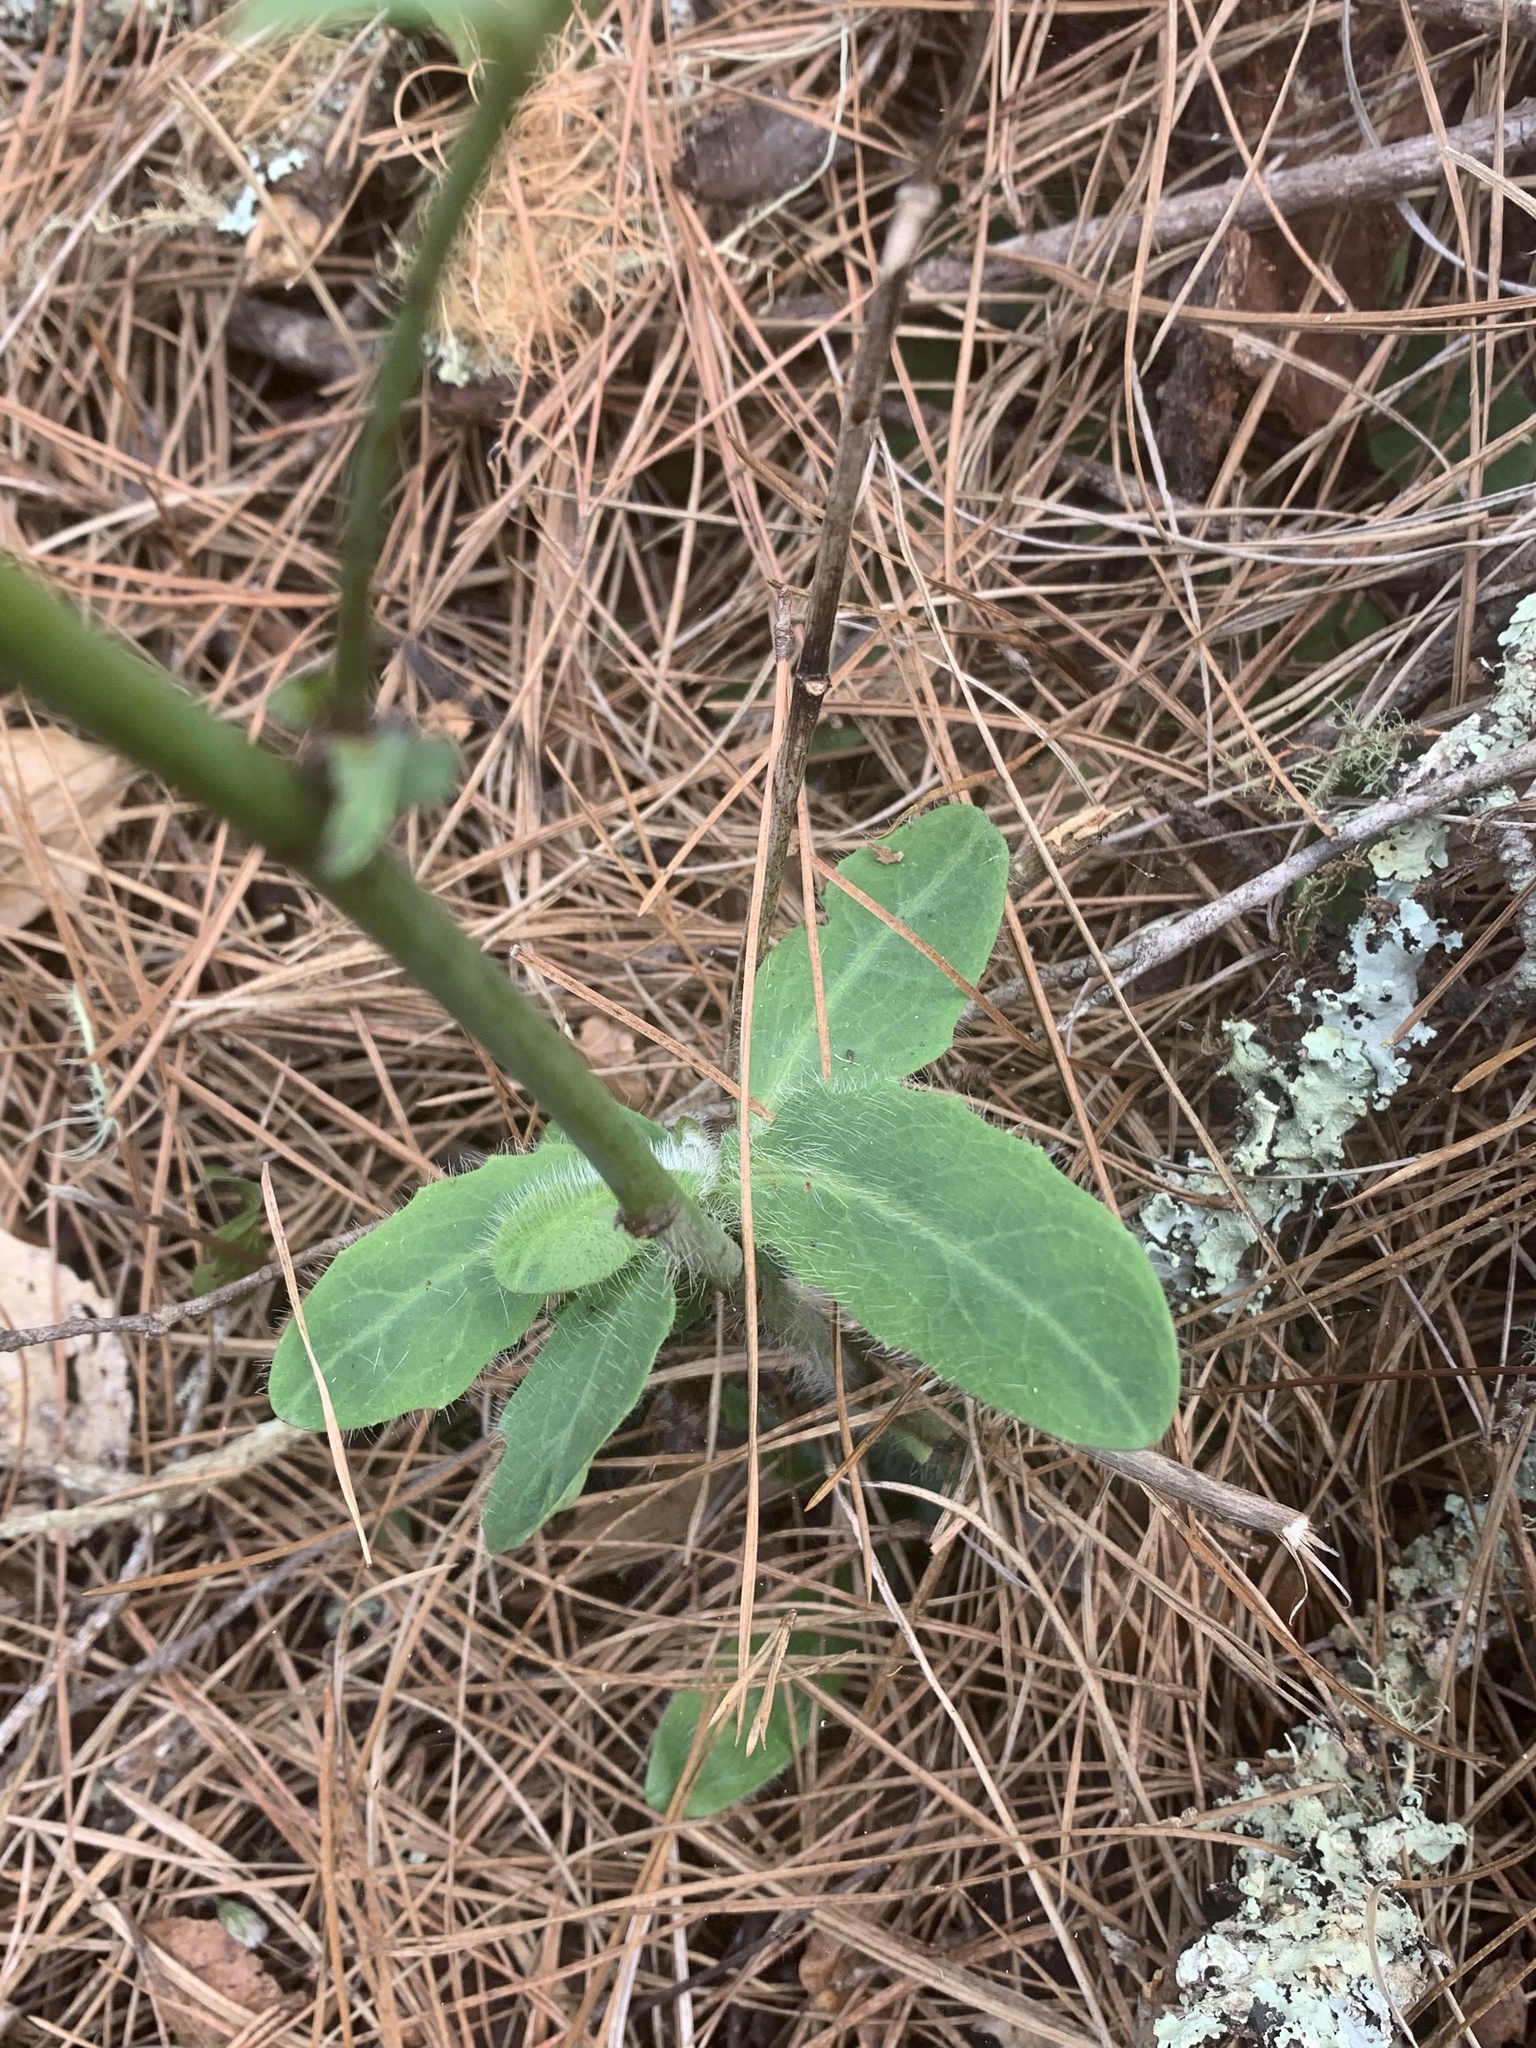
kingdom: Plantae
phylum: Tracheophyta
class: Magnoliopsida
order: Asterales
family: Asteraceae
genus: Hieracium
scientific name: Hieracium albiflorum
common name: White hawkweed
